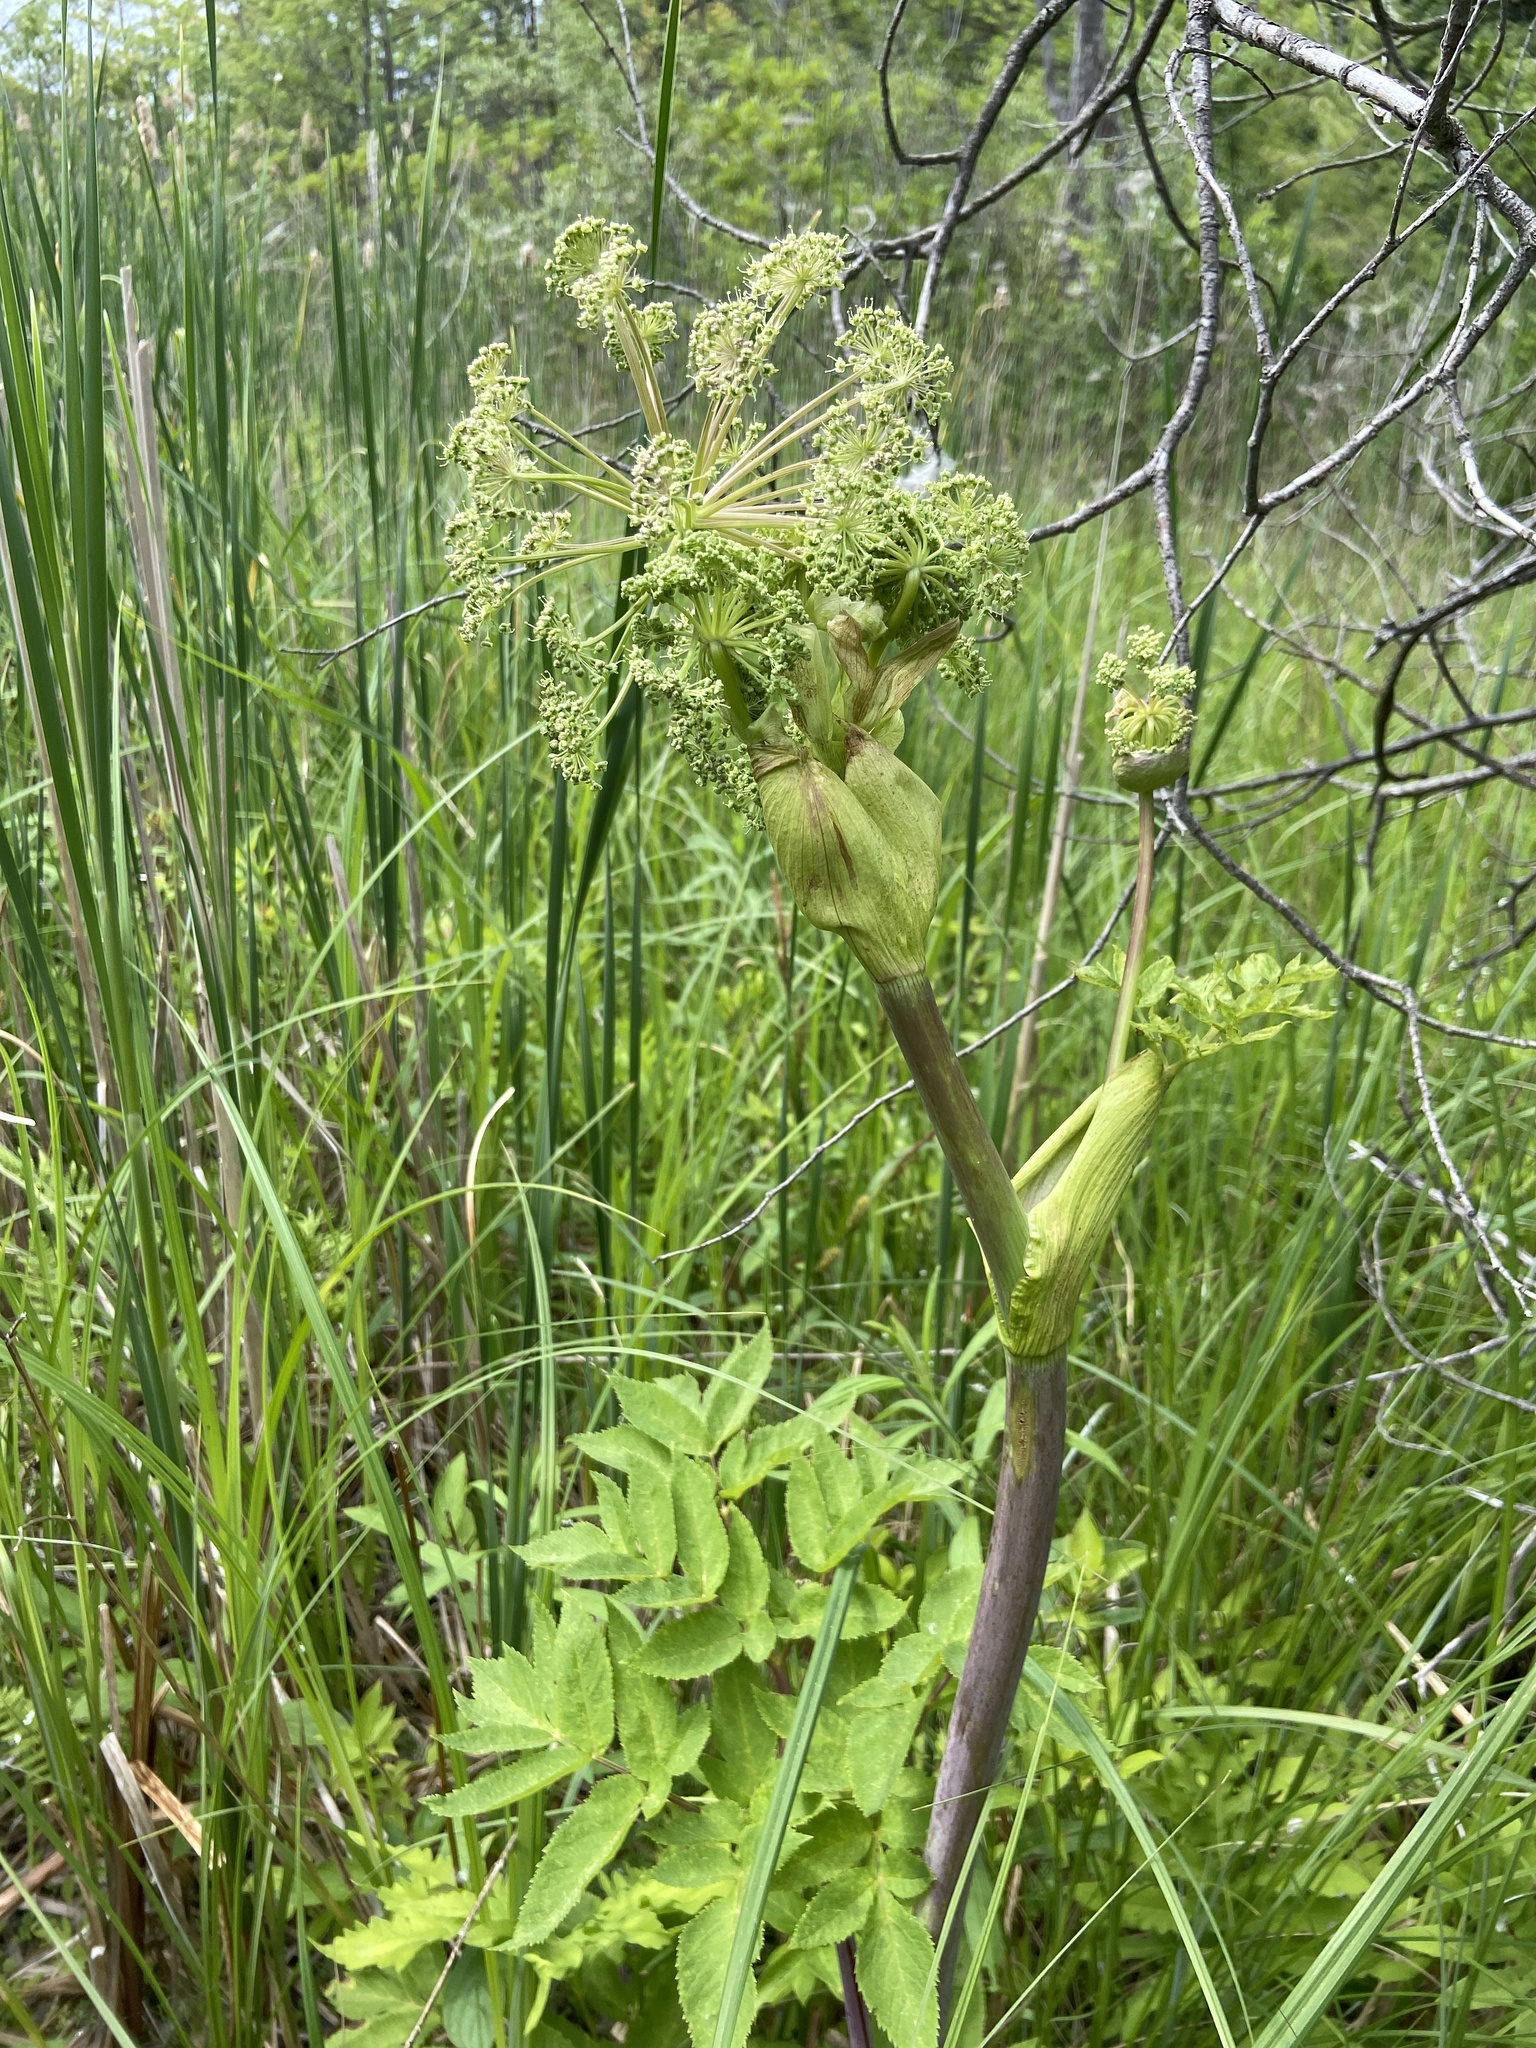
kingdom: Plantae
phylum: Tracheophyta
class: Magnoliopsida
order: Apiales
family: Apiaceae
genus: Angelica
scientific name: Angelica atropurpurea
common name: Great angelica
